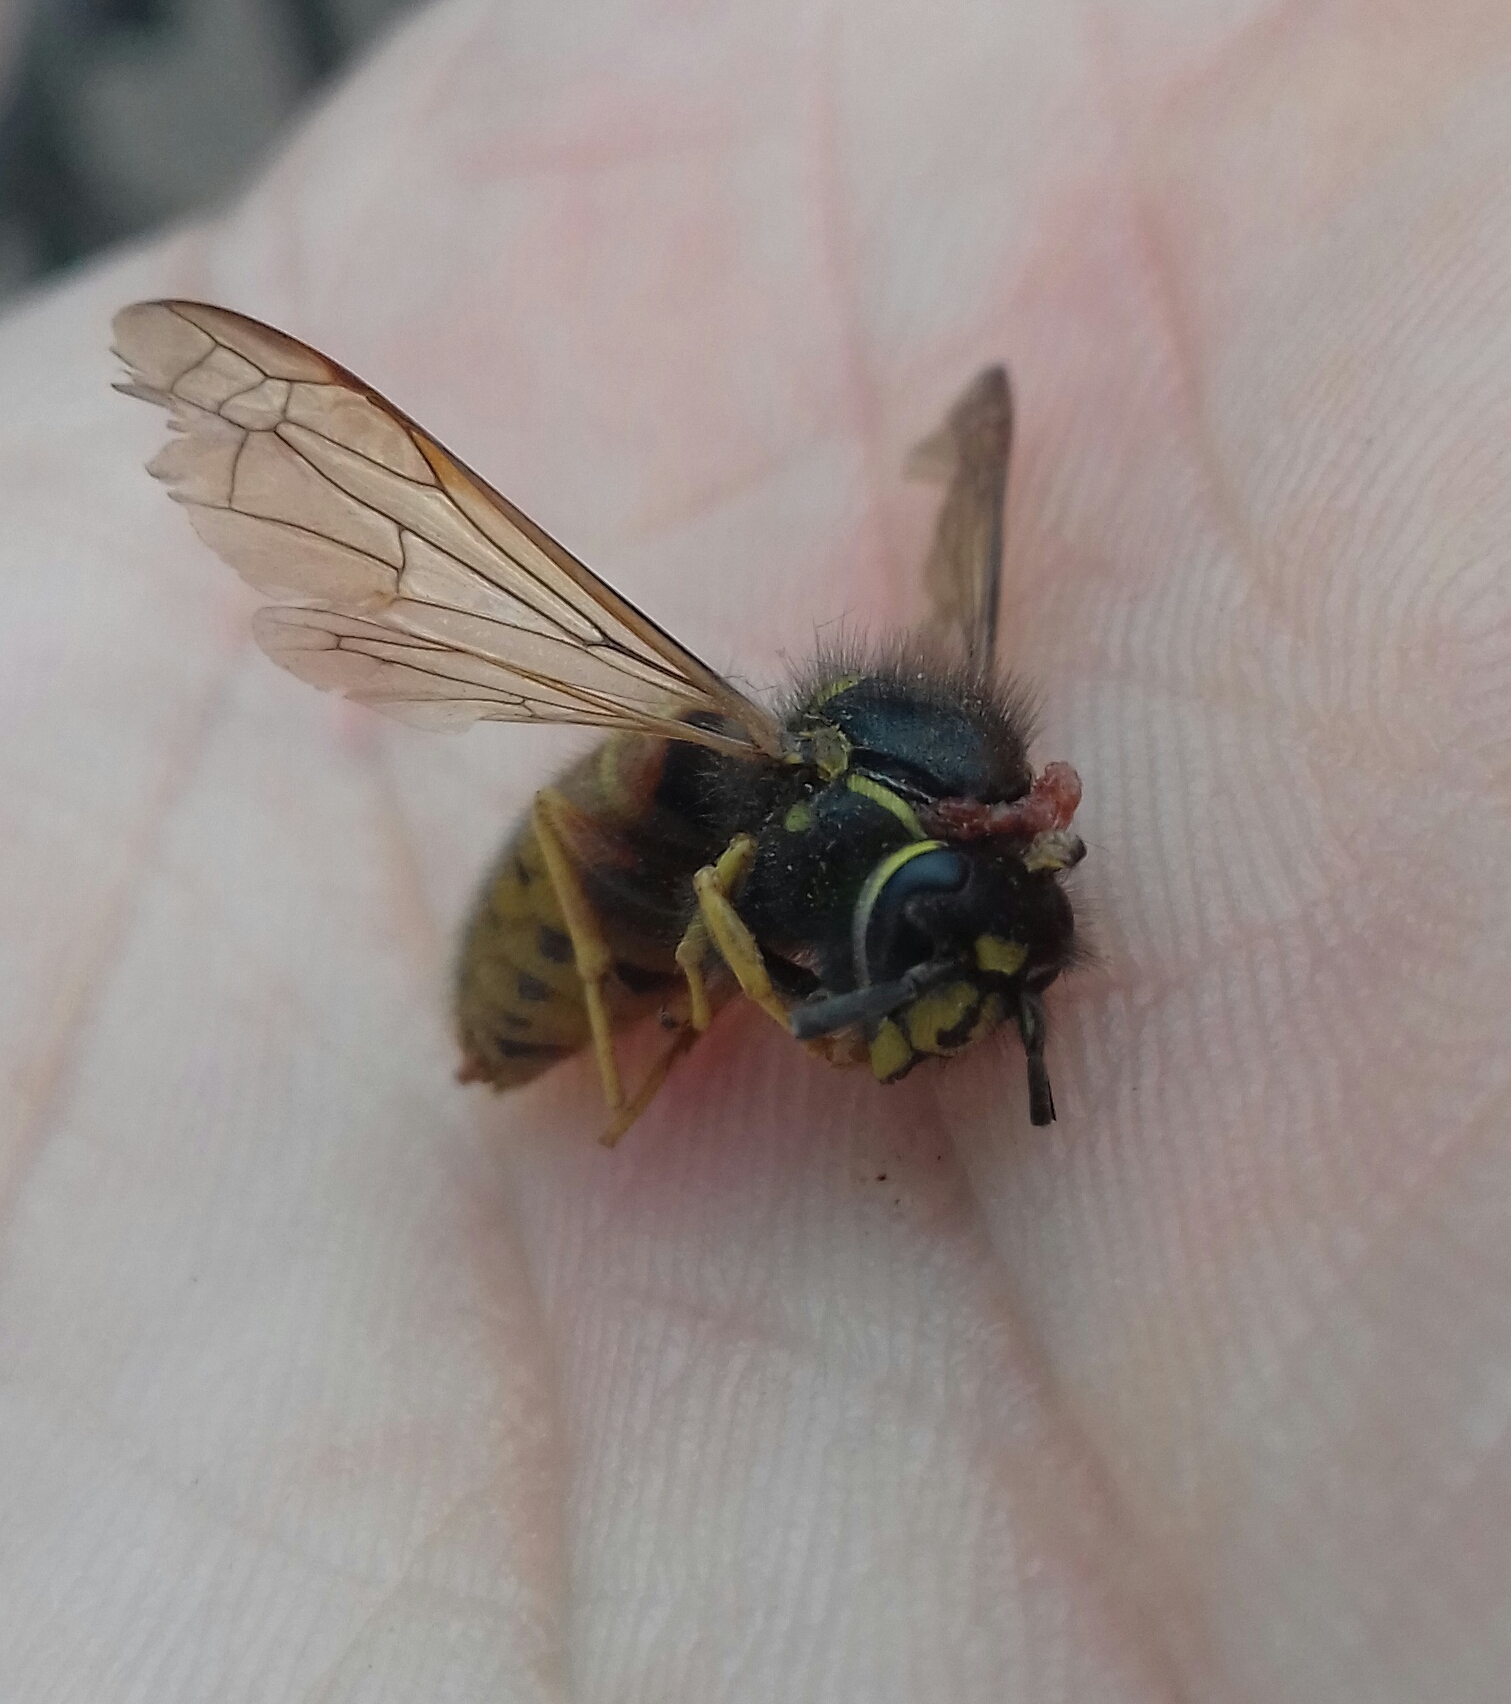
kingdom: Animalia
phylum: Arthropoda
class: Insecta
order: Hymenoptera
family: Vespidae
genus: Vespula
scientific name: Vespula rufa
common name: Red wasp
